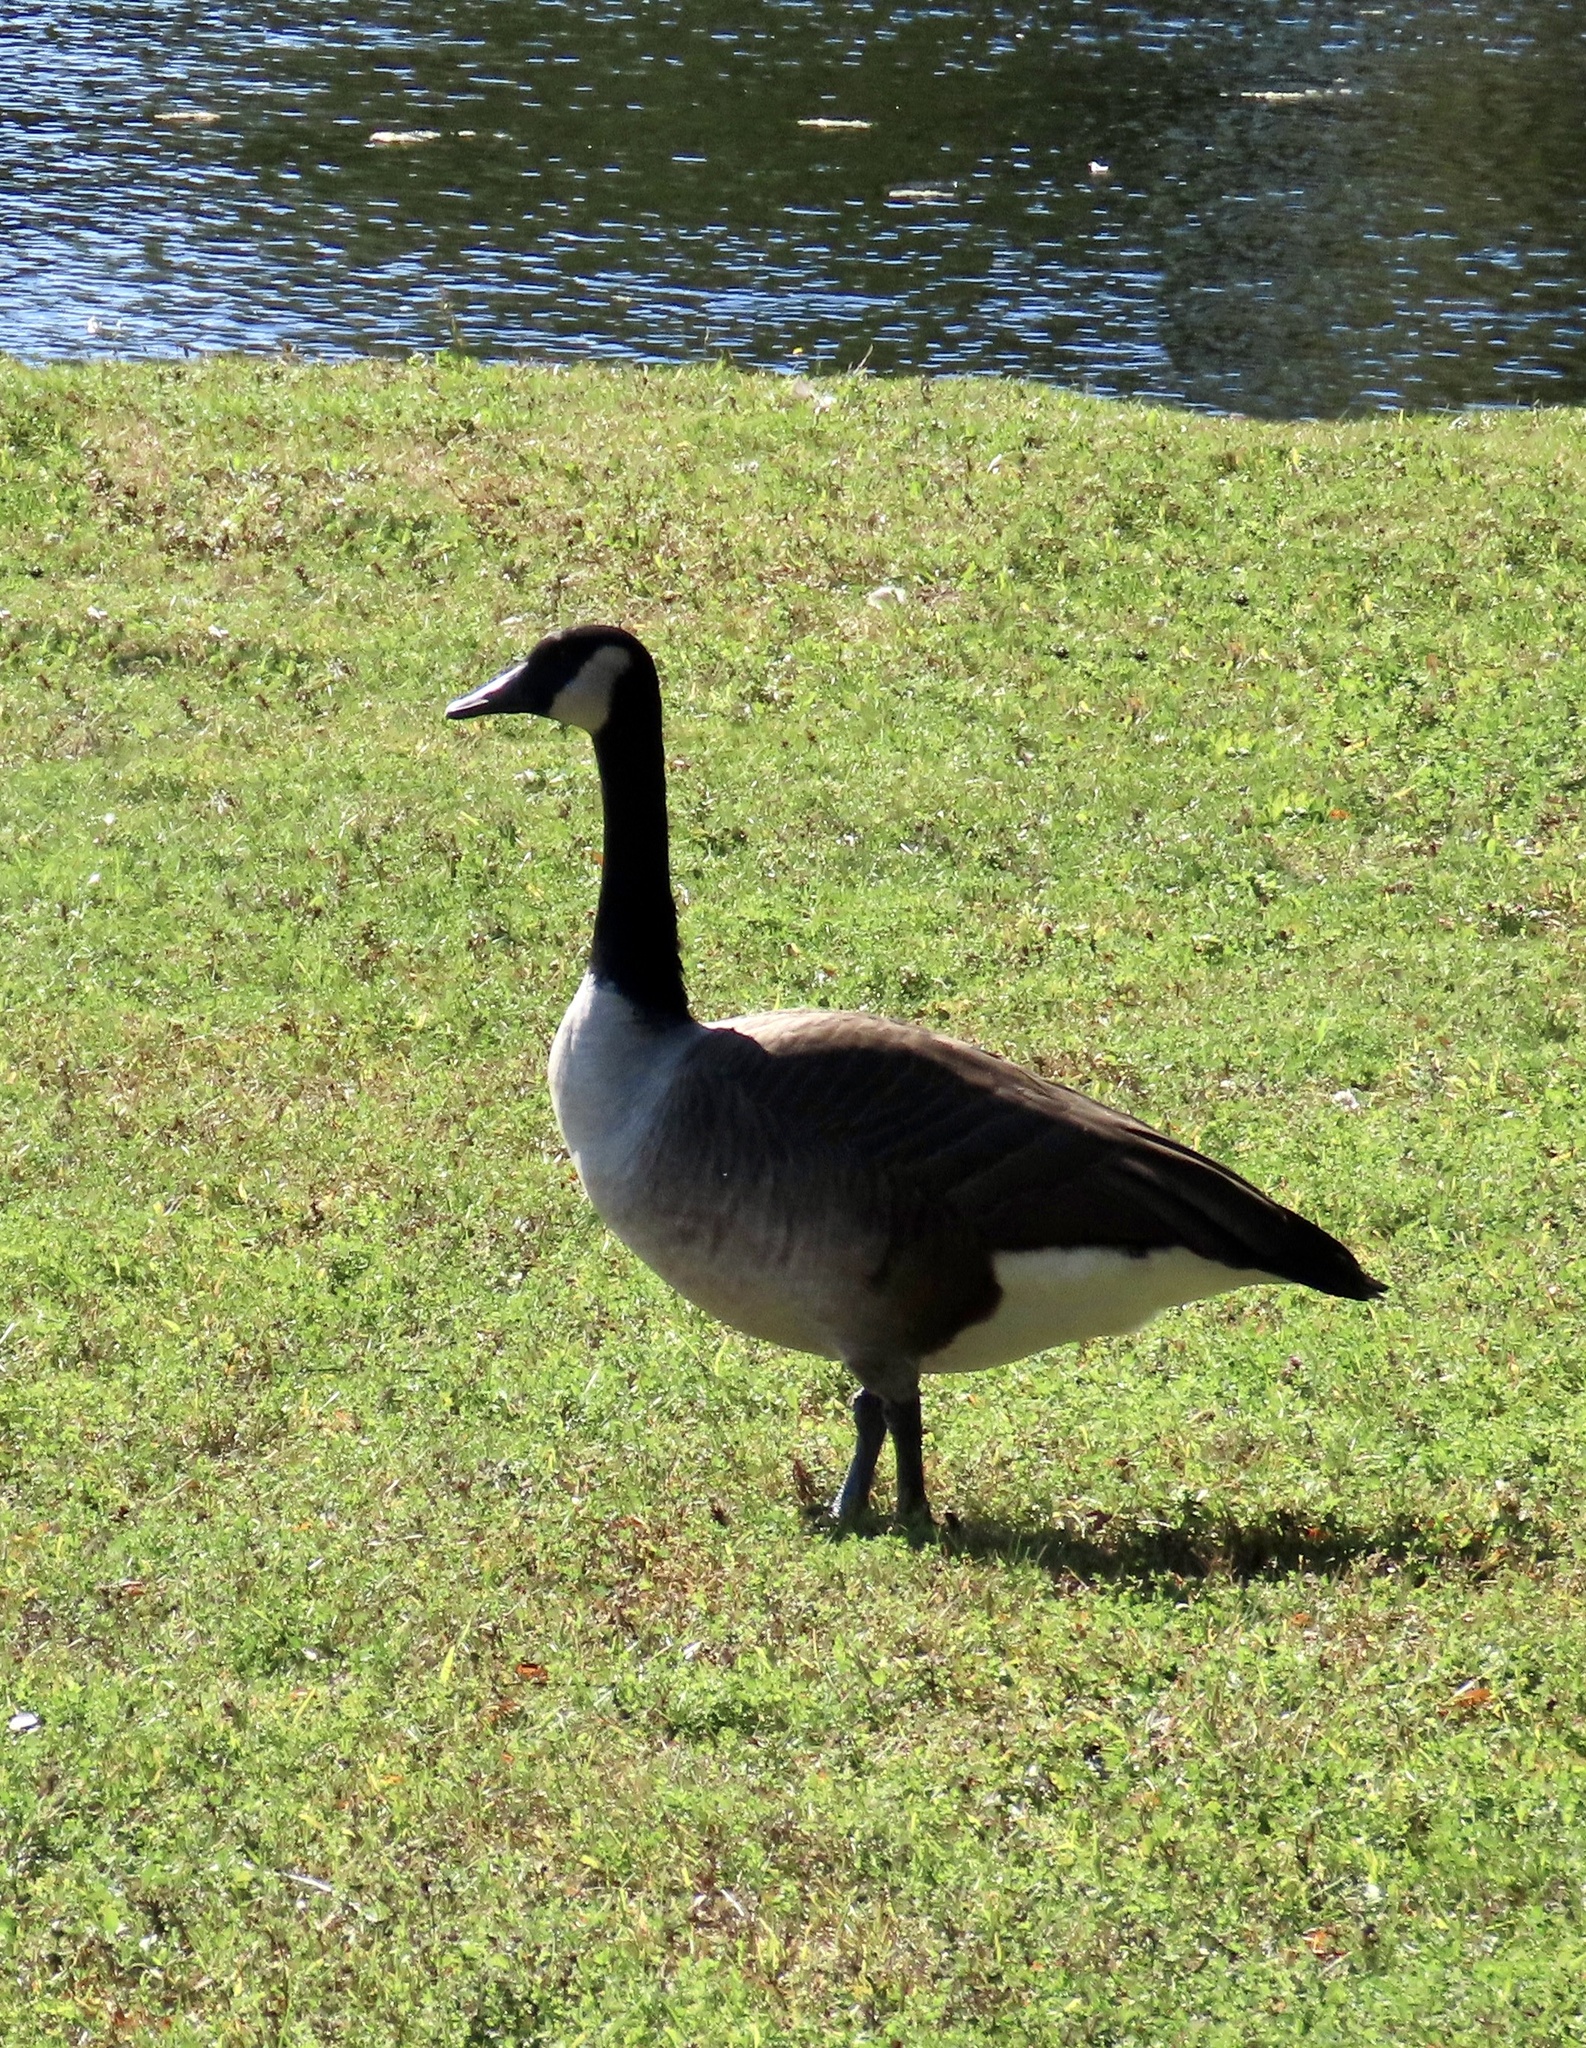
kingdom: Animalia
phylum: Chordata
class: Aves
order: Anseriformes
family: Anatidae
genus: Branta
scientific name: Branta canadensis
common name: Canada goose
